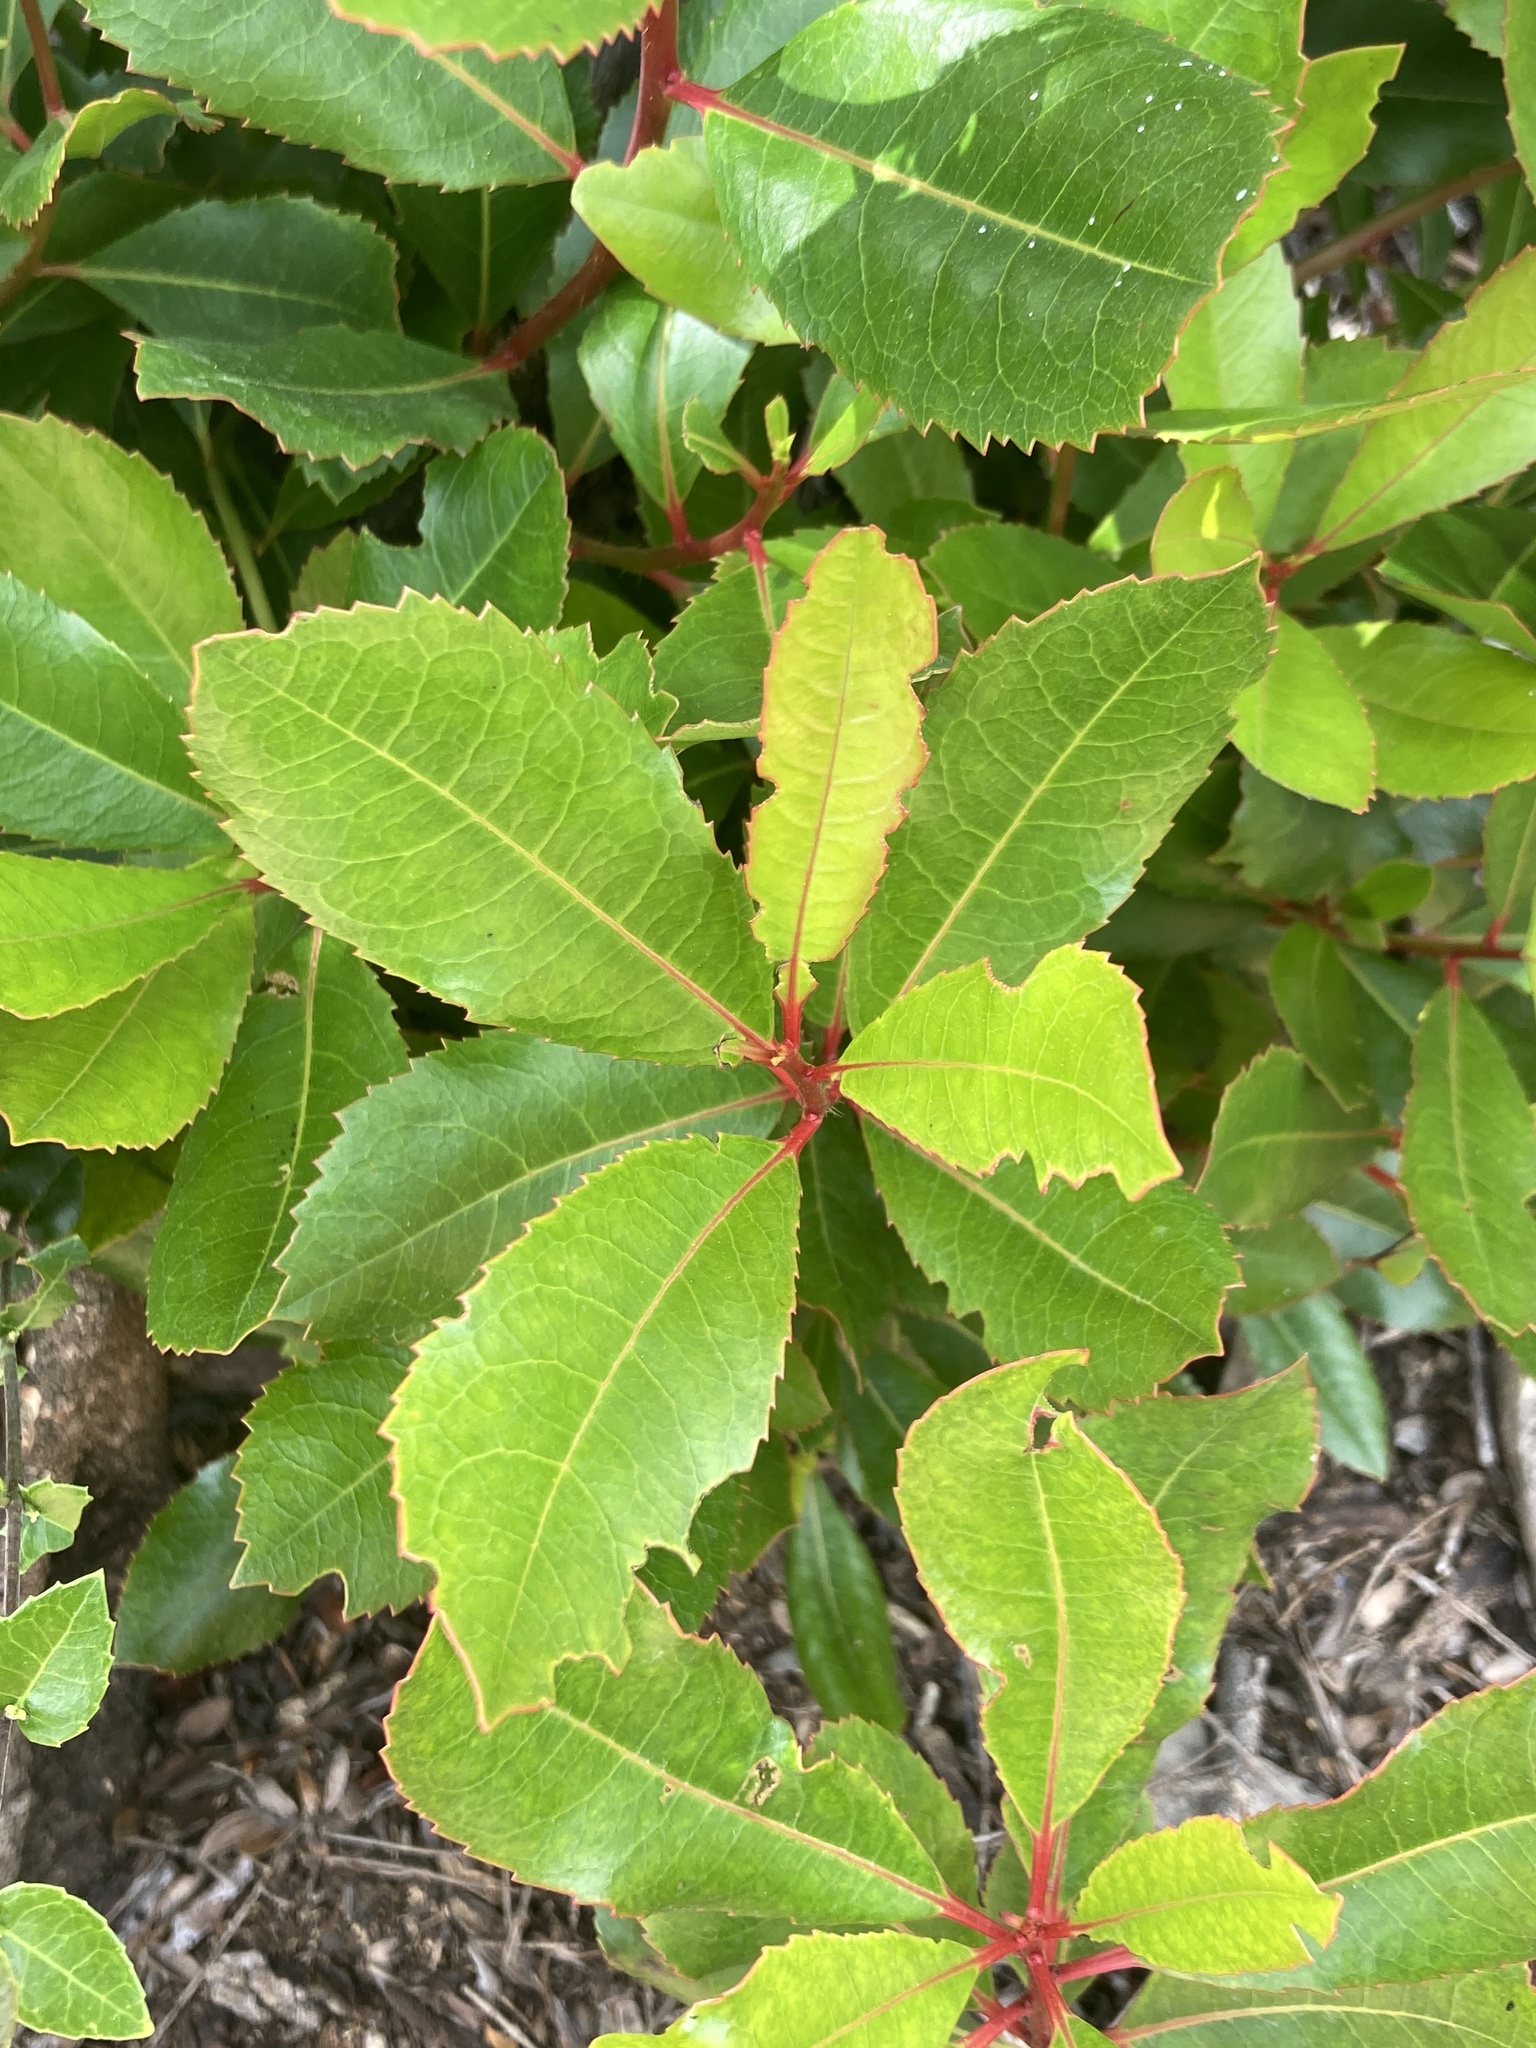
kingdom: Plantae
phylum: Tracheophyta
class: Magnoliopsida
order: Ericales
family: Ericaceae
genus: Arbutus
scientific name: Arbutus unedo
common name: Strawberry-tree
